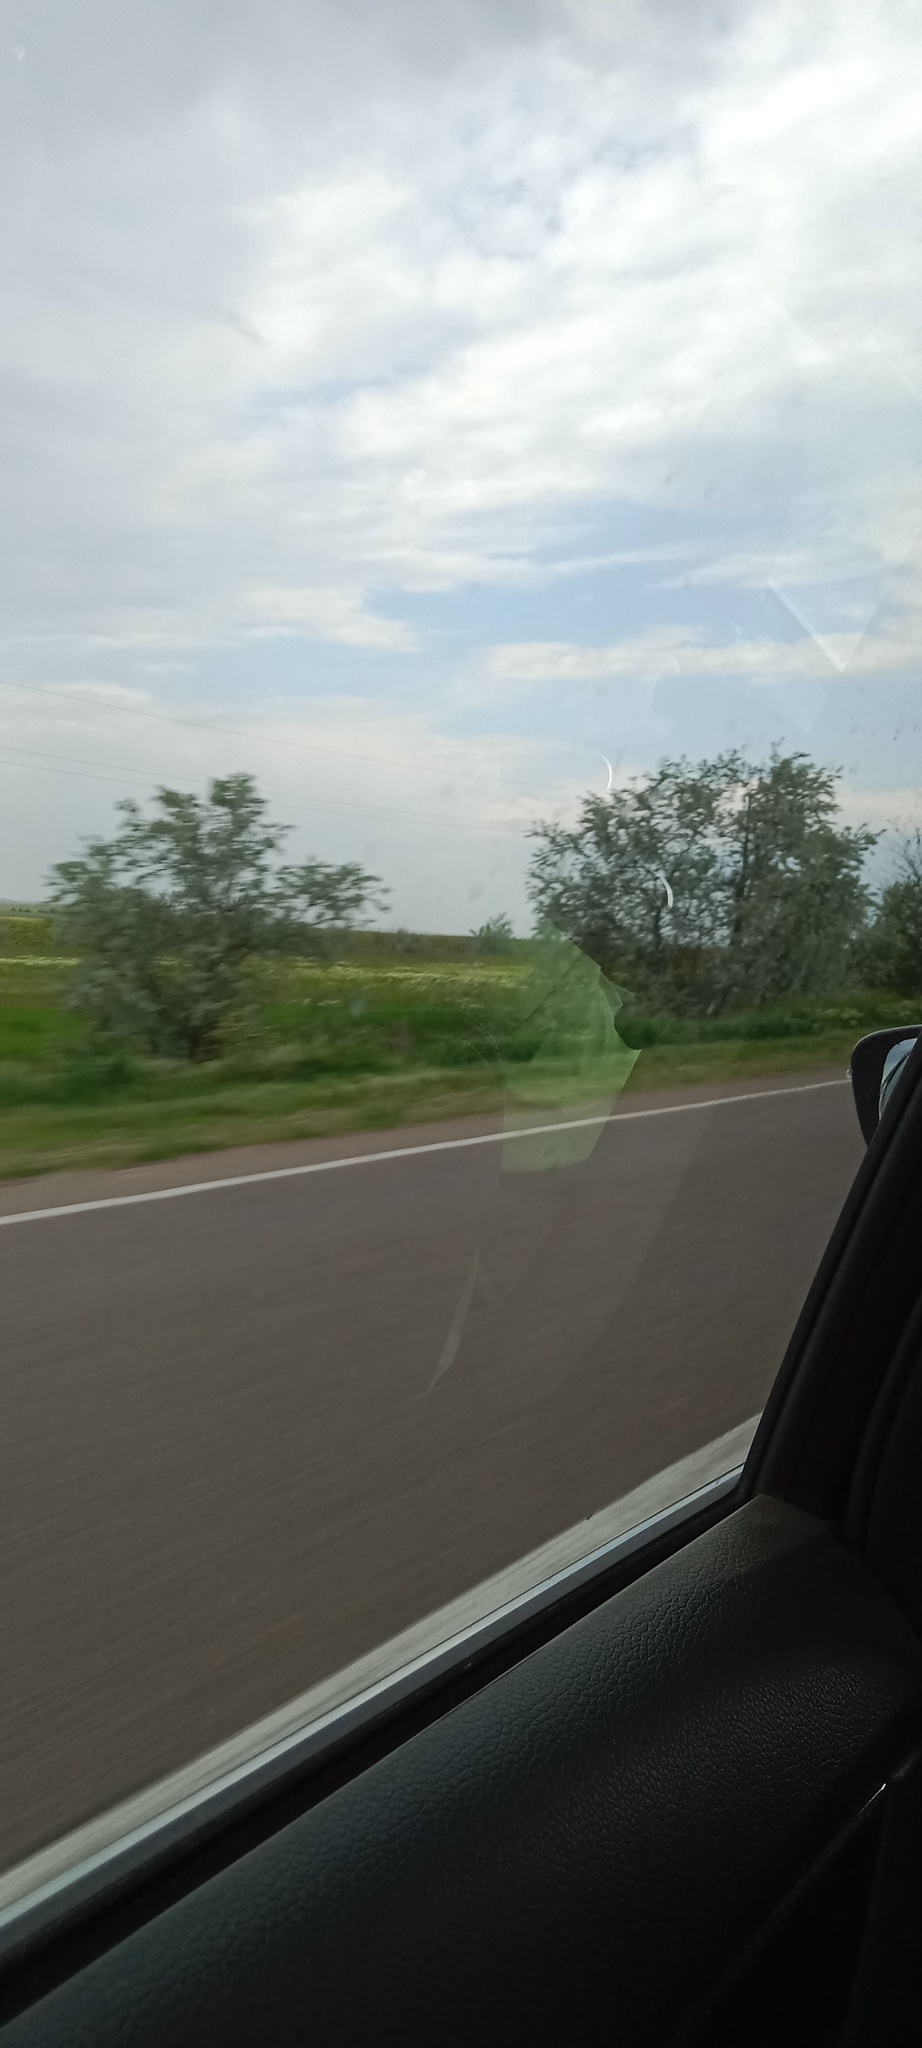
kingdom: Plantae
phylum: Tracheophyta
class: Magnoliopsida
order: Rosales
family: Elaeagnaceae
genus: Elaeagnus
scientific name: Elaeagnus angustifolia
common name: Russian olive
